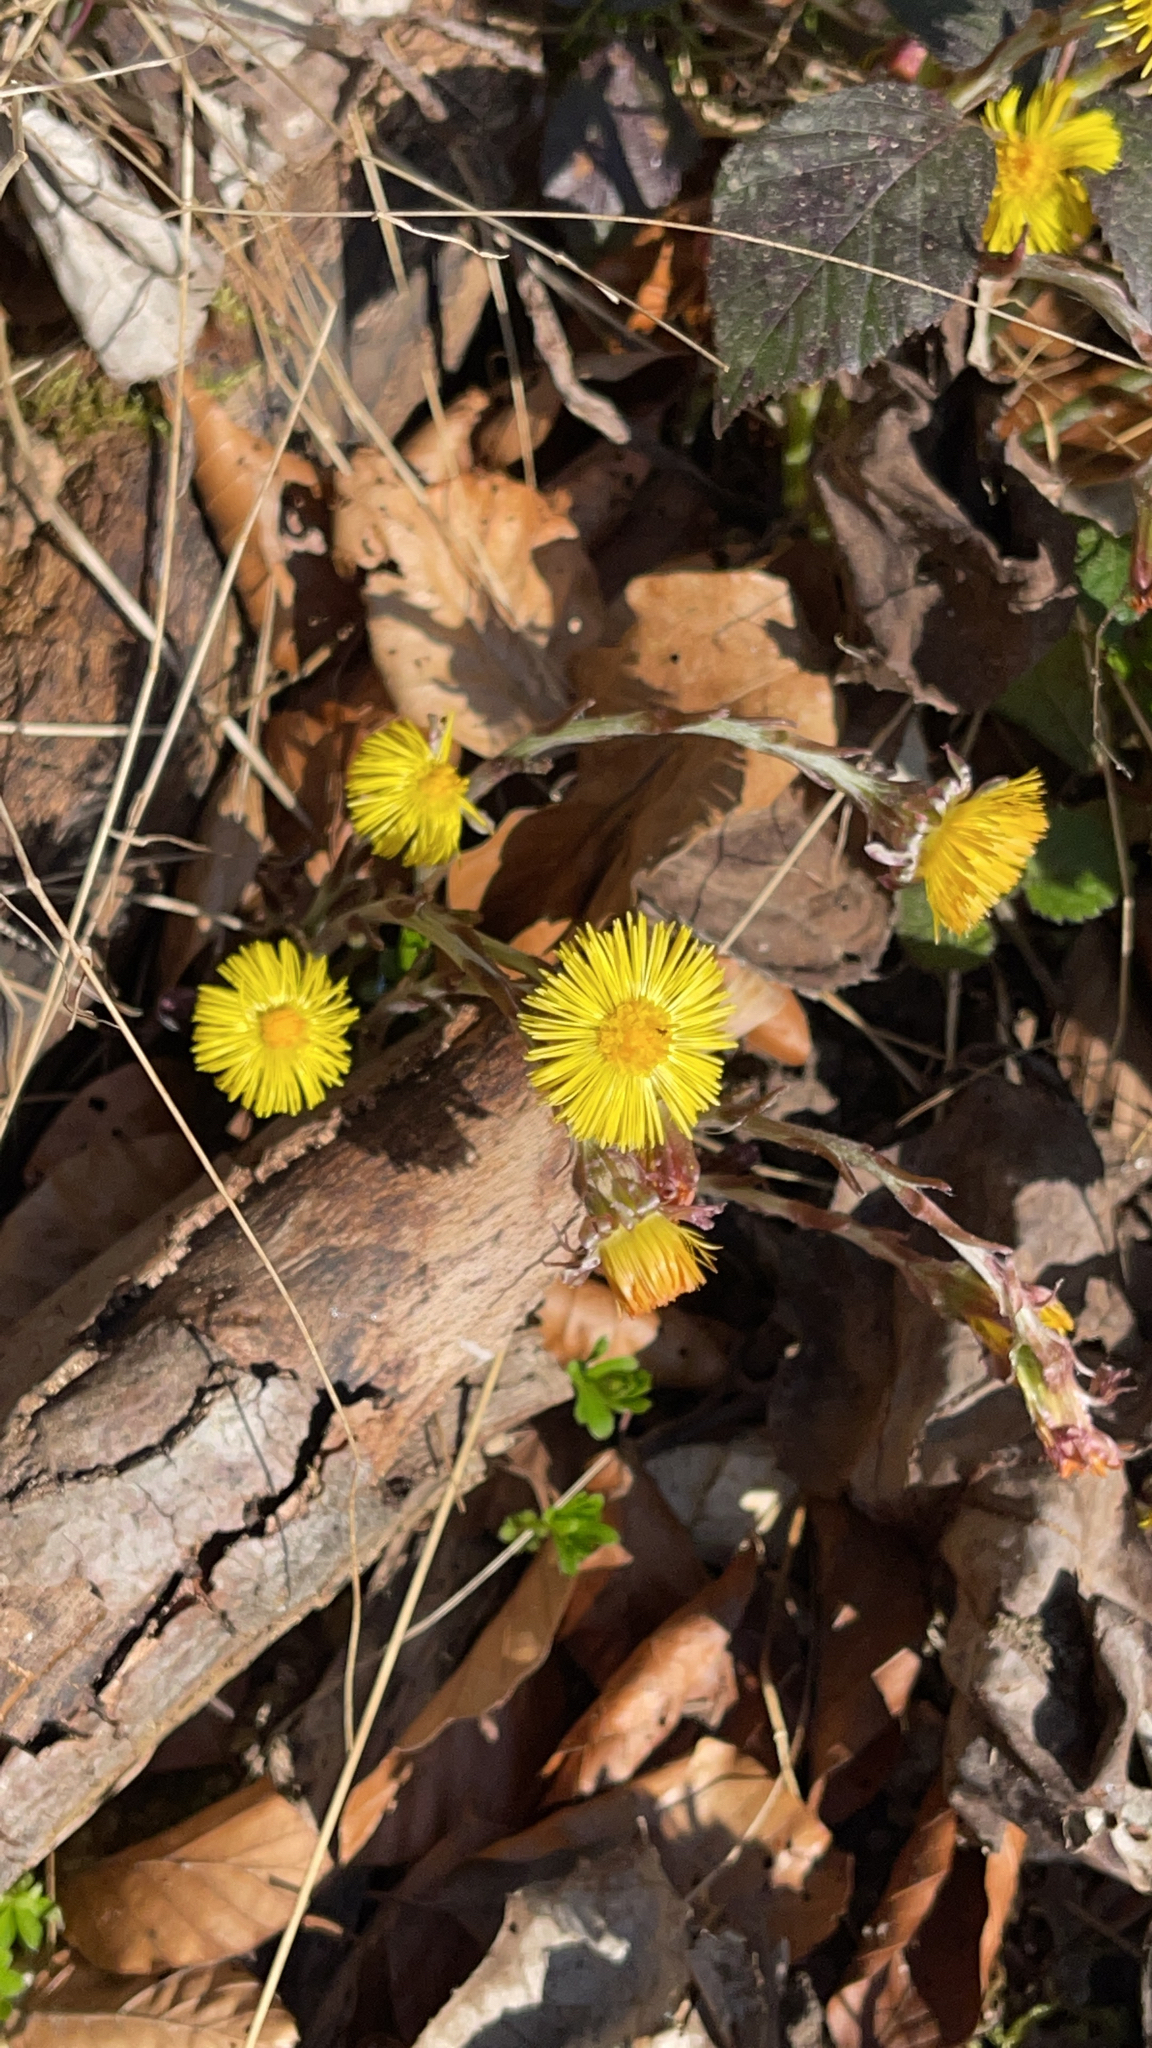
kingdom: Plantae
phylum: Tracheophyta
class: Magnoliopsida
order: Asterales
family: Asteraceae
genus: Tussilago
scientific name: Tussilago farfara
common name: Coltsfoot
